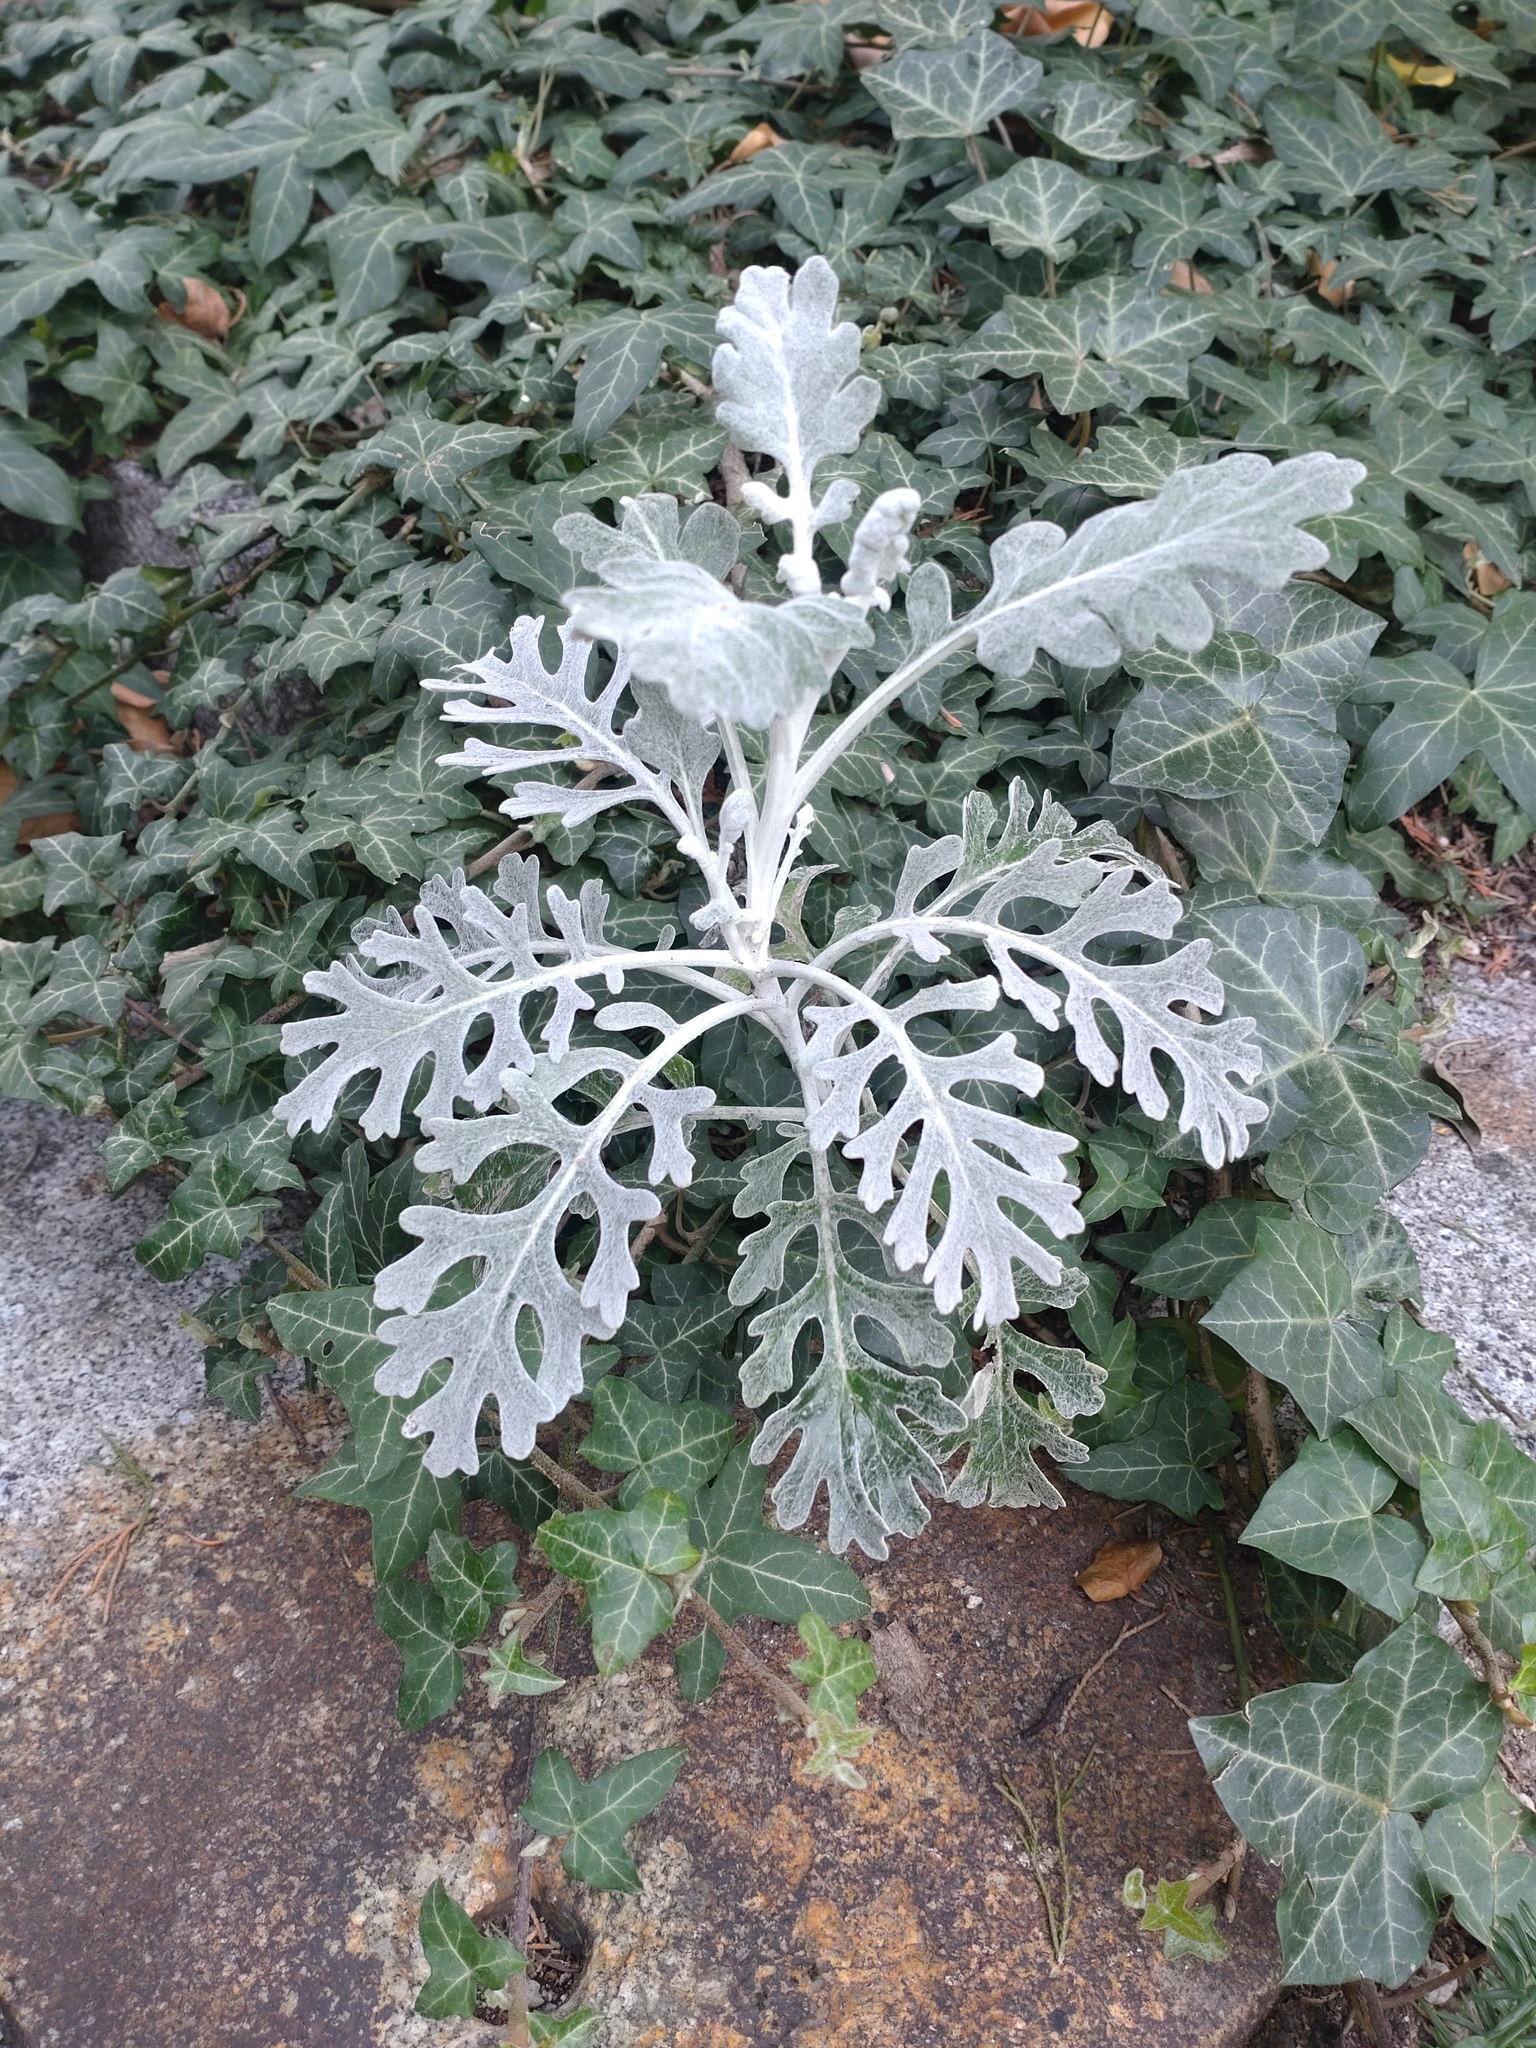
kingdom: Plantae
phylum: Tracheophyta
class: Magnoliopsida
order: Asterales
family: Asteraceae
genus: Jacobaea
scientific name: Jacobaea maritima
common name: Silver ragwort
